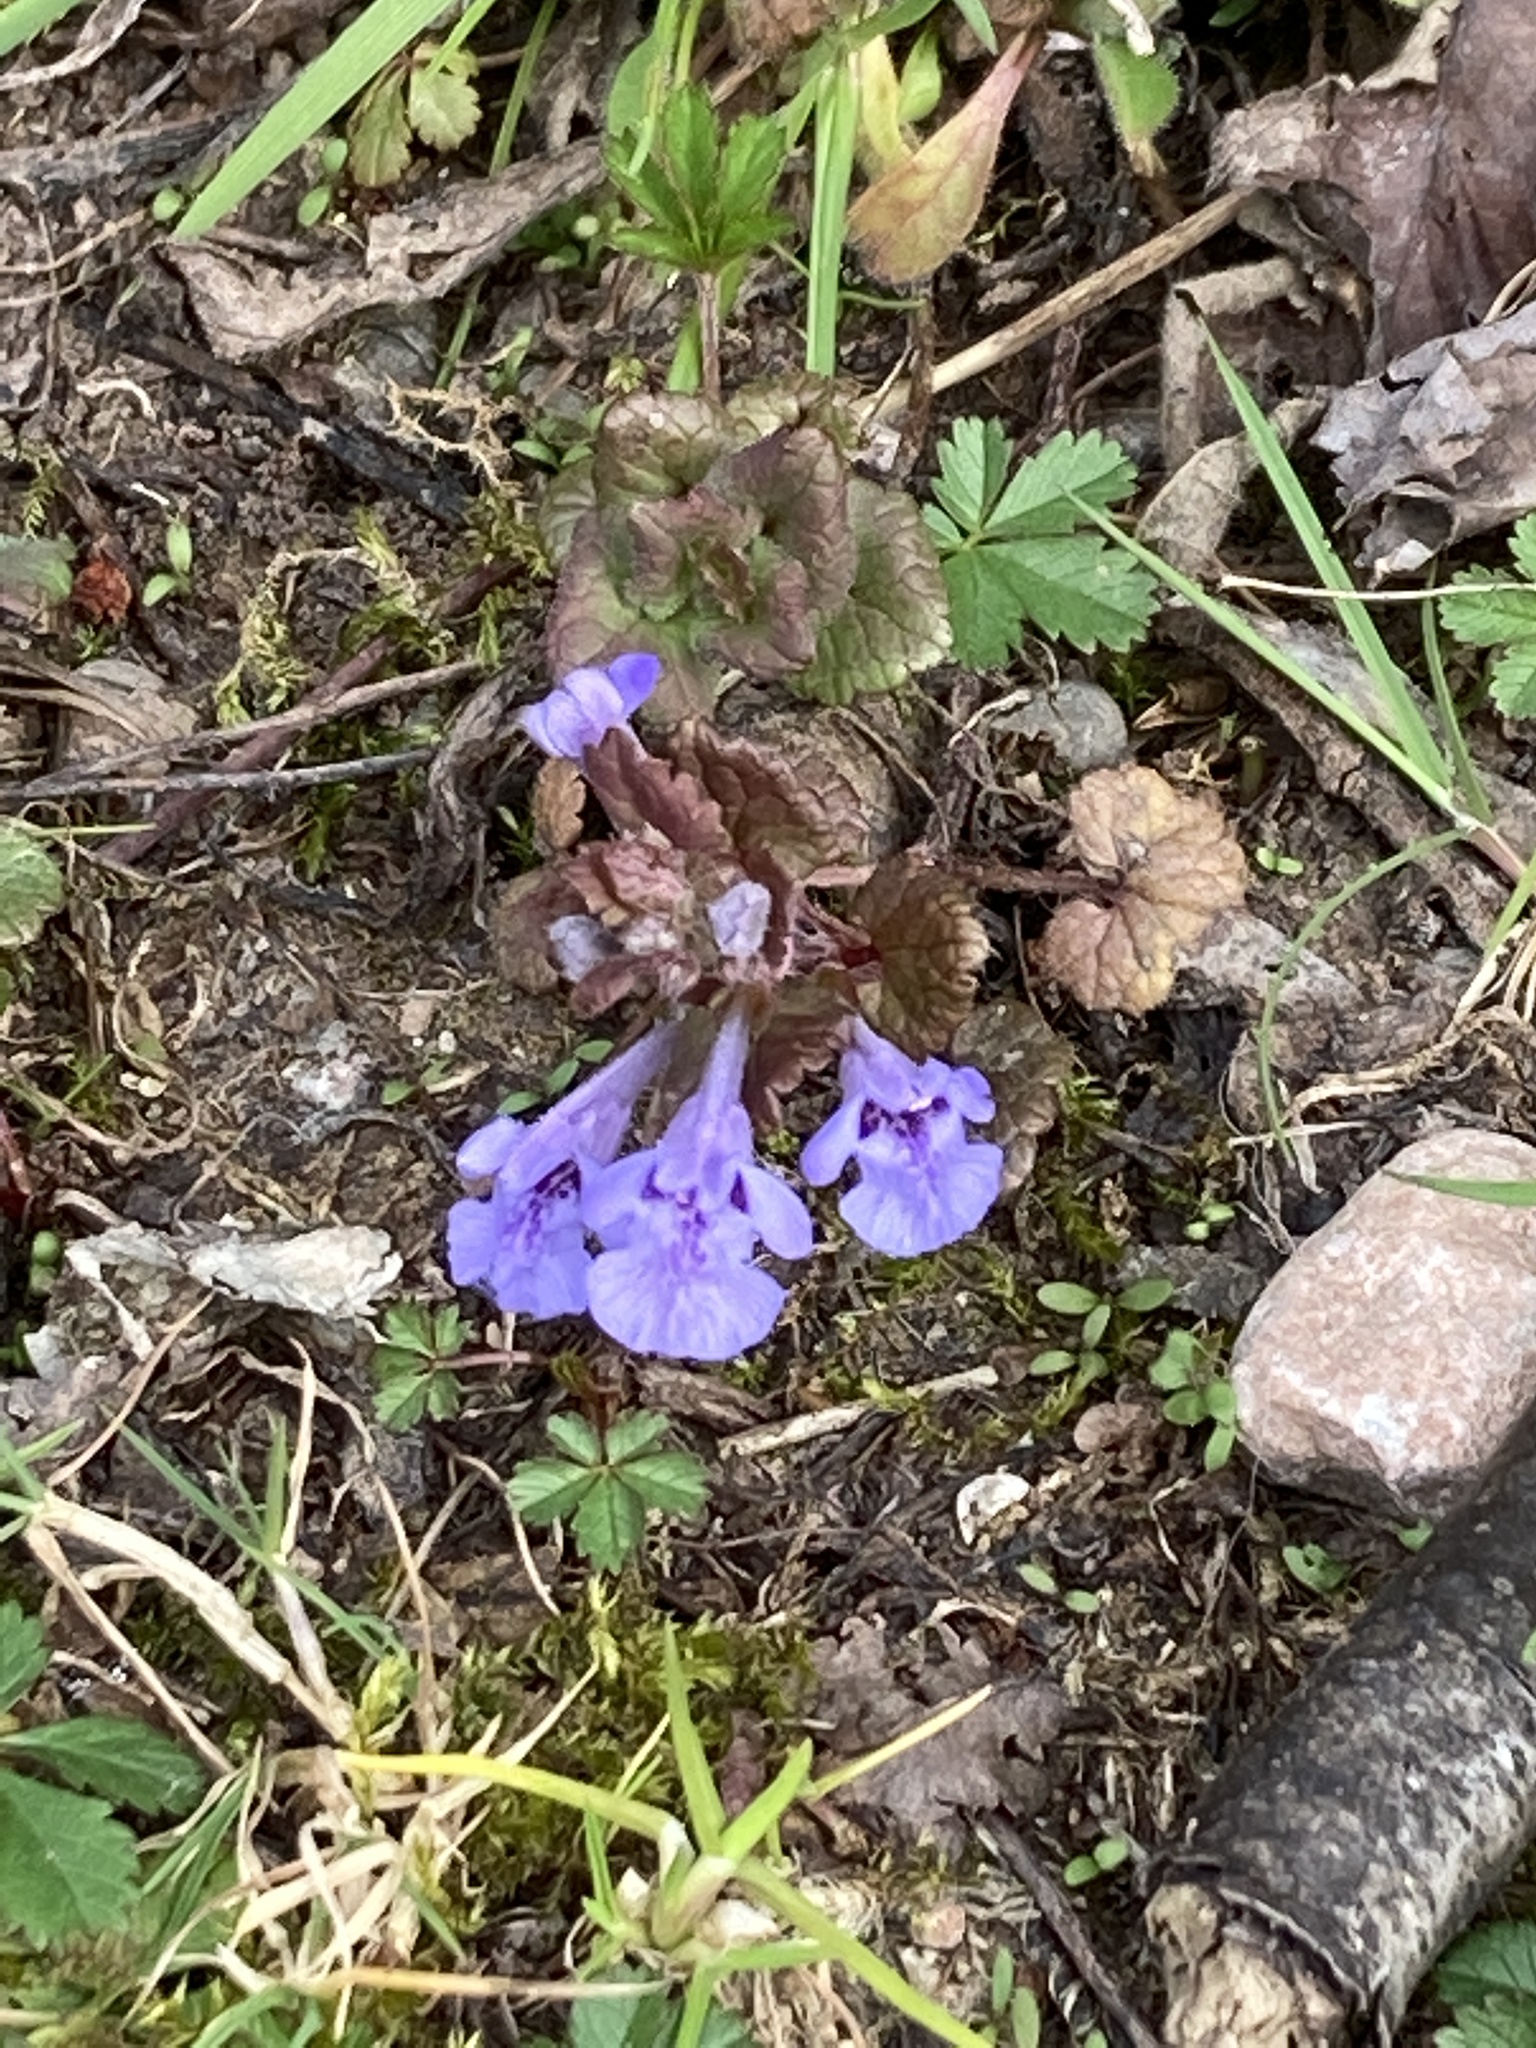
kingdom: Plantae
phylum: Tracheophyta
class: Magnoliopsida
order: Lamiales
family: Lamiaceae
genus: Glechoma
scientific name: Glechoma hederacea
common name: Ground ivy
